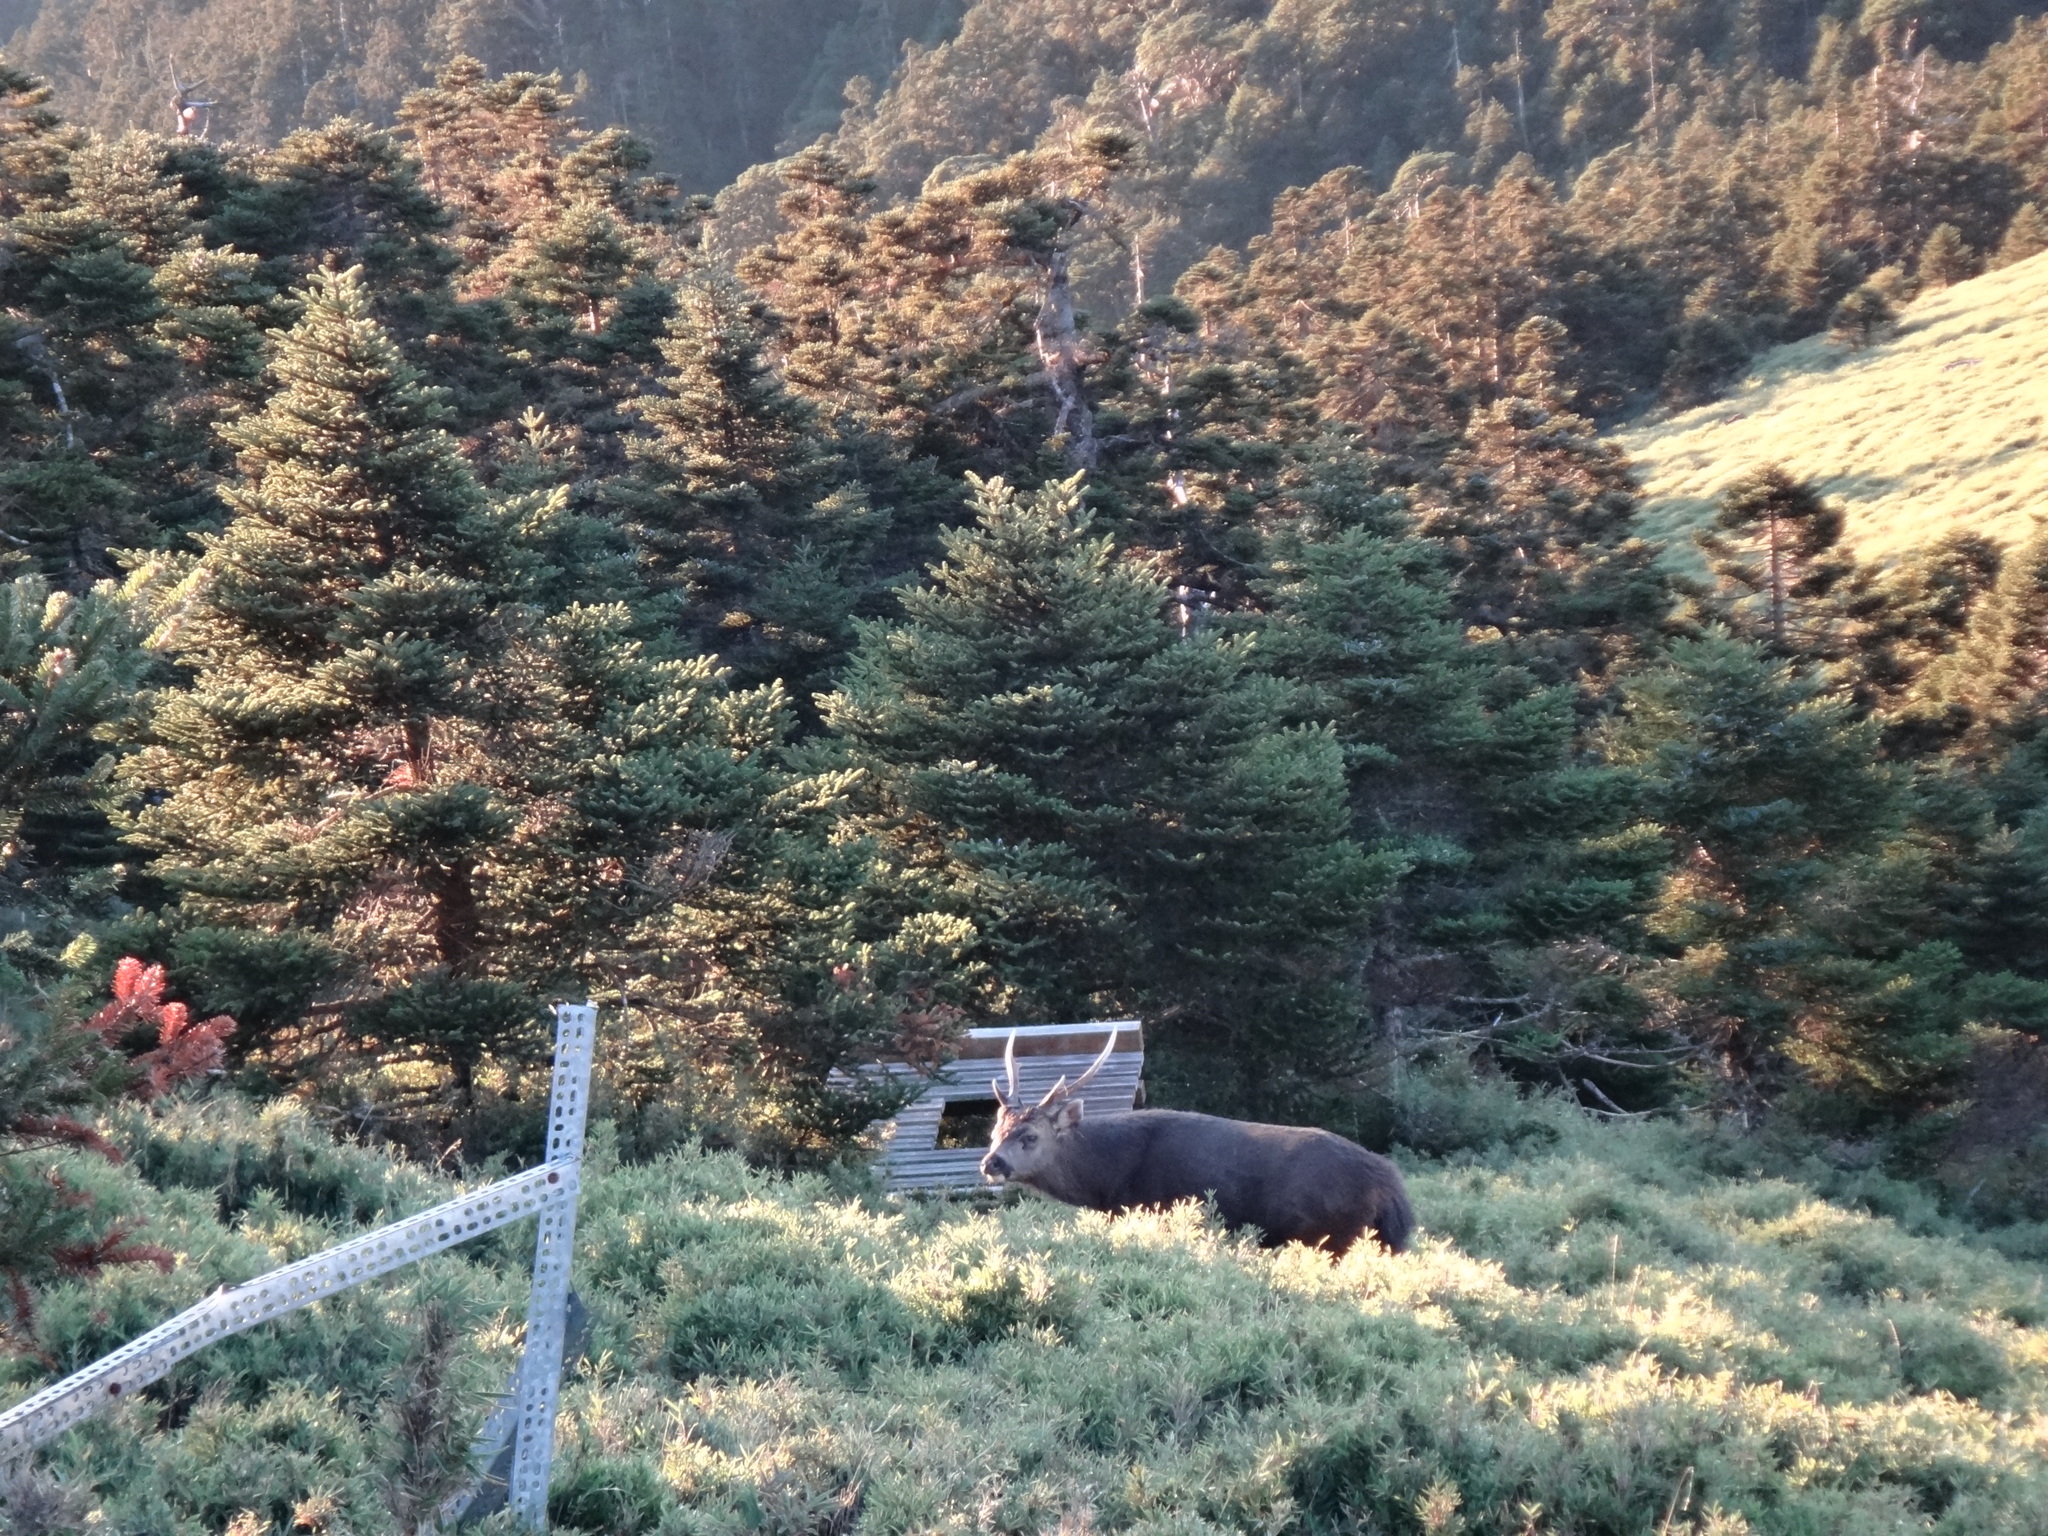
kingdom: Animalia
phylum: Chordata
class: Mammalia
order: Artiodactyla
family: Cervidae
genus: Rusa
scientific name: Rusa unicolor
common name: Sambar
